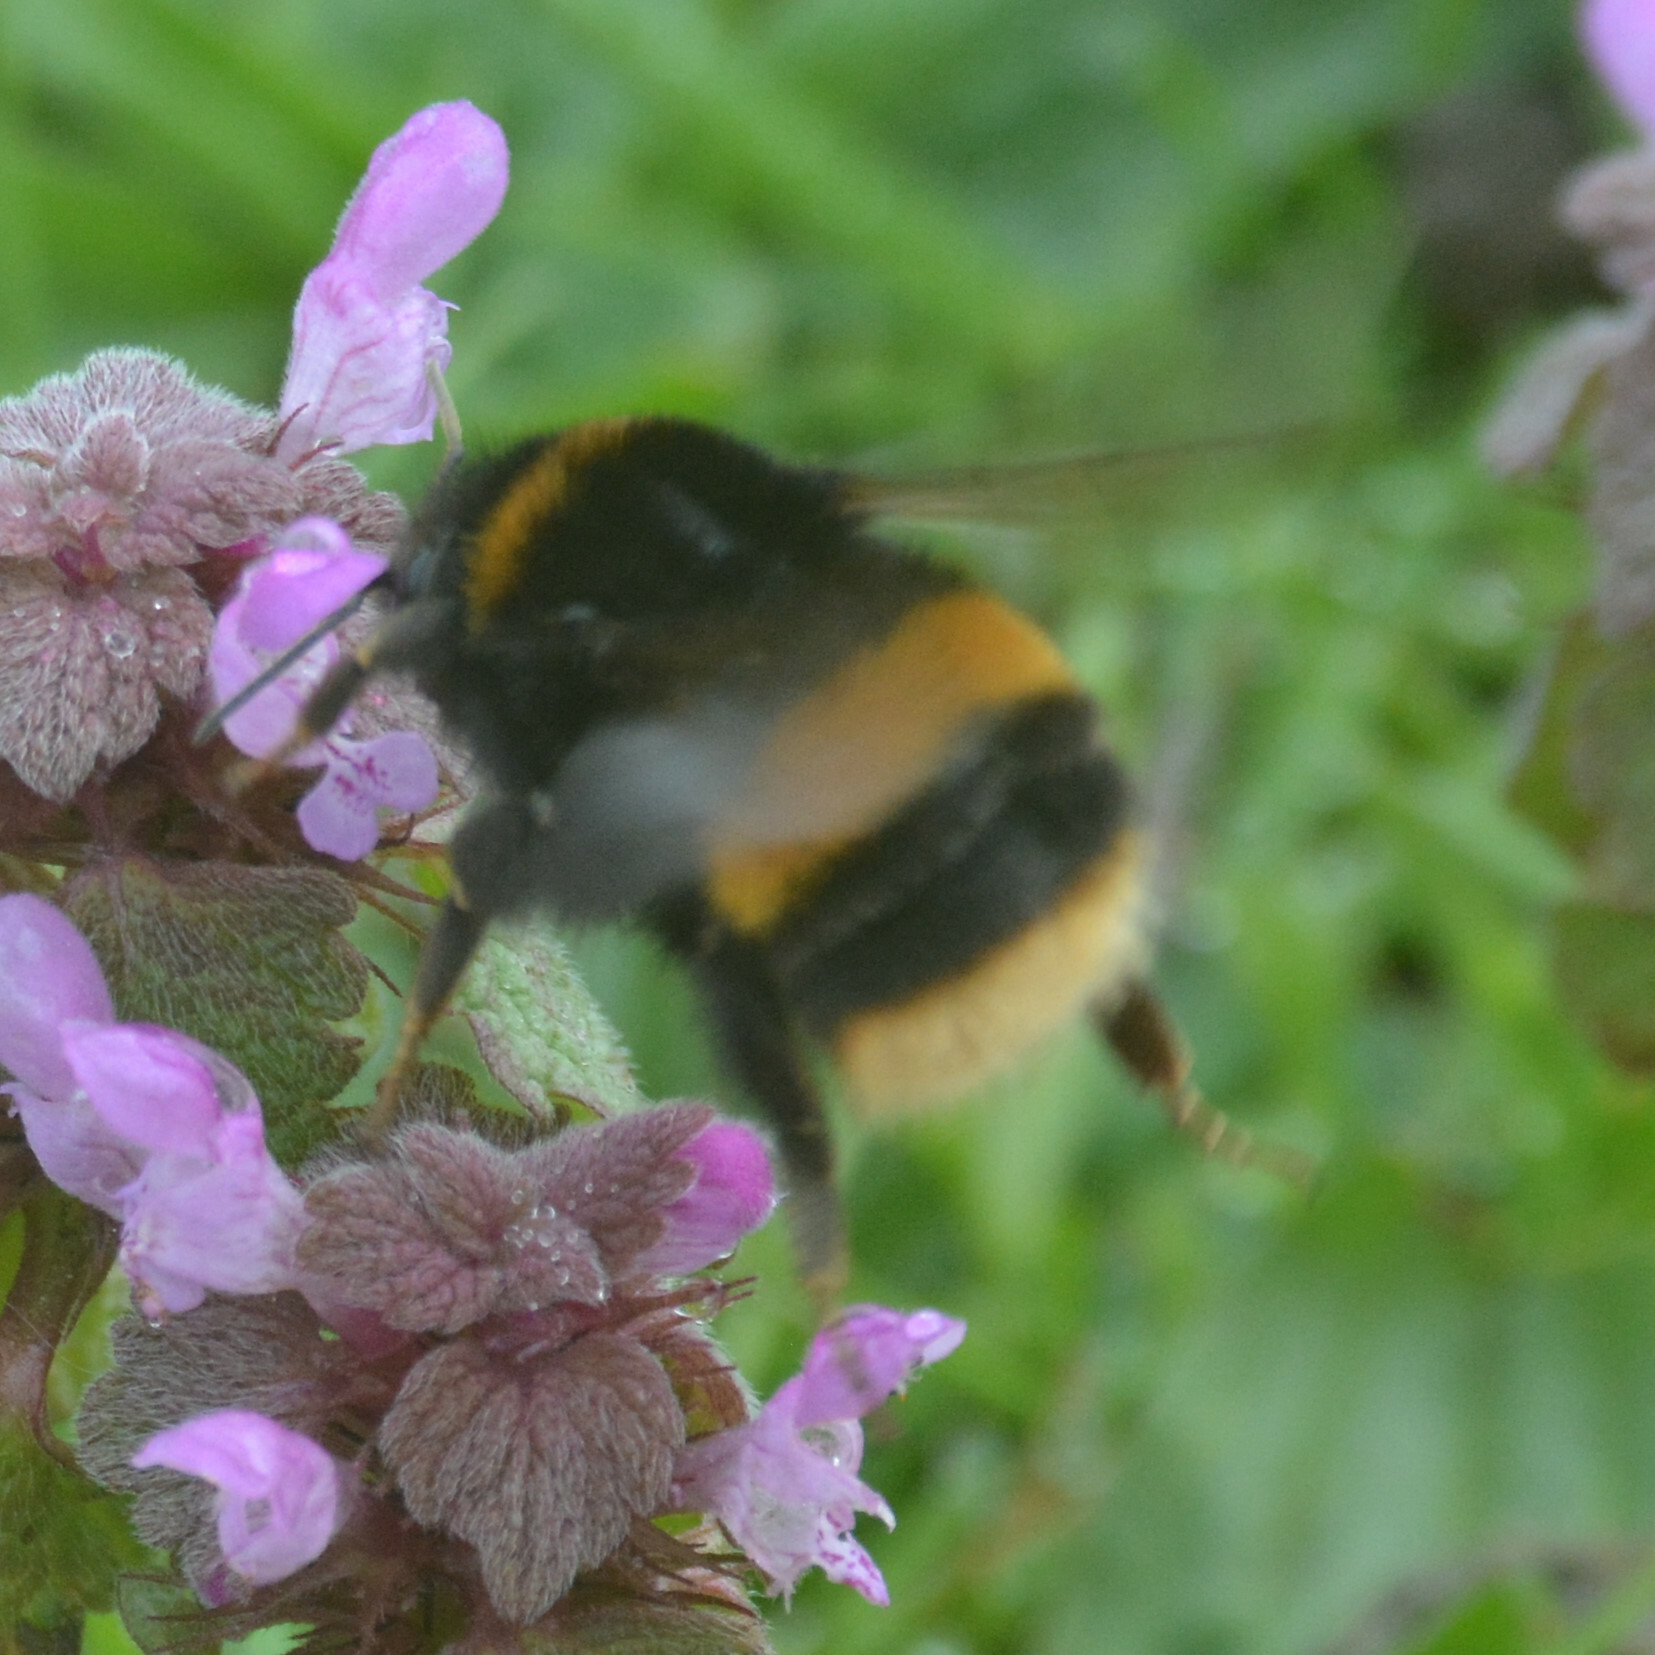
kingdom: Animalia
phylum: Arthropoda
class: Insecta
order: Hymenoptera
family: Apidae
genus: Bombus
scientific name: Bombus terrestris
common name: Buff-tailed bumblebee
